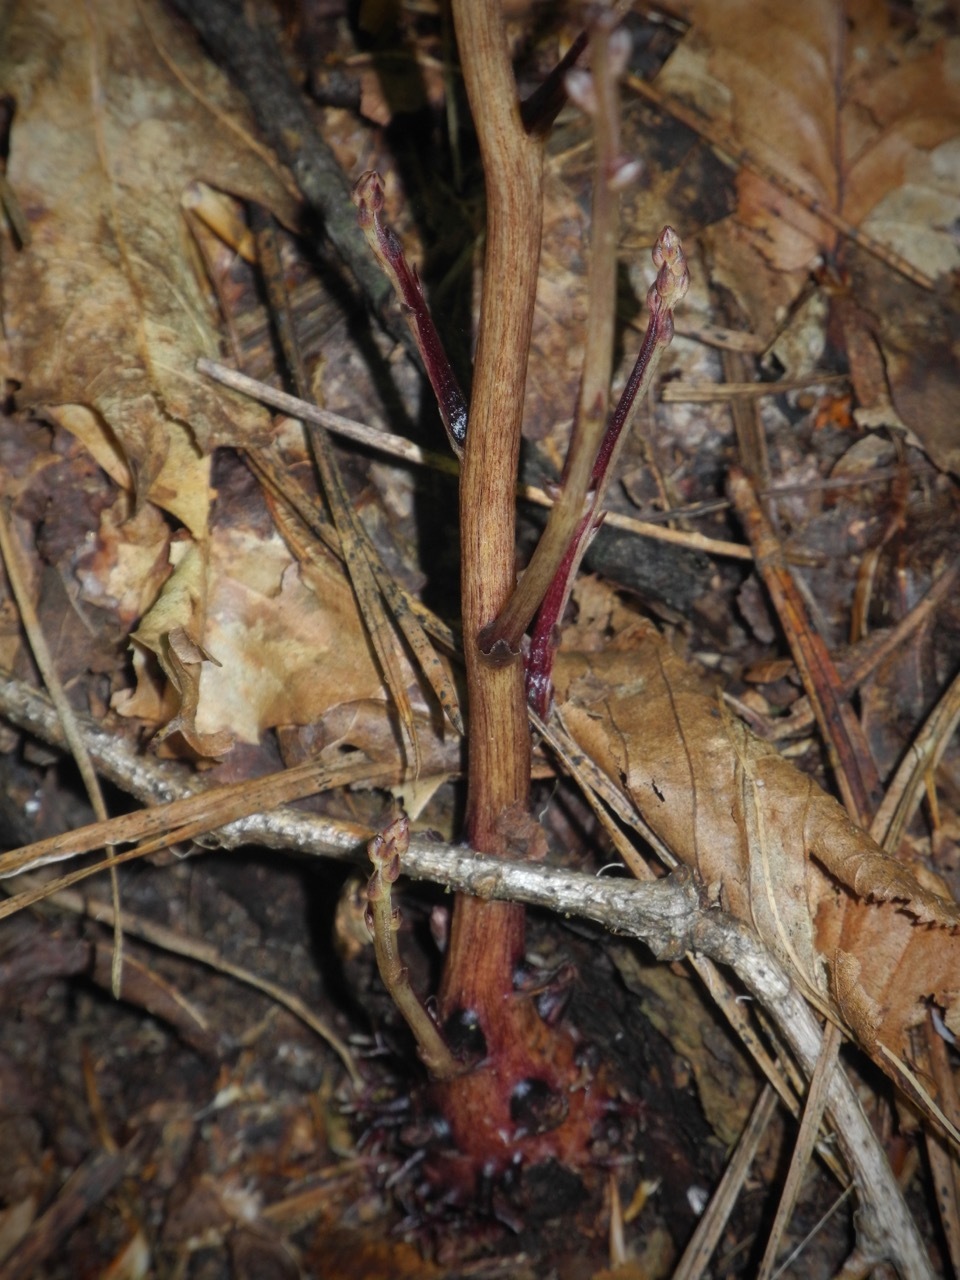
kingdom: Plantae
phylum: Tracheophyta
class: Magnoliopsida
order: Lamiales
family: Orobanchaceae
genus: Epifagus
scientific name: Epifagus virginiana
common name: Beechdrops
